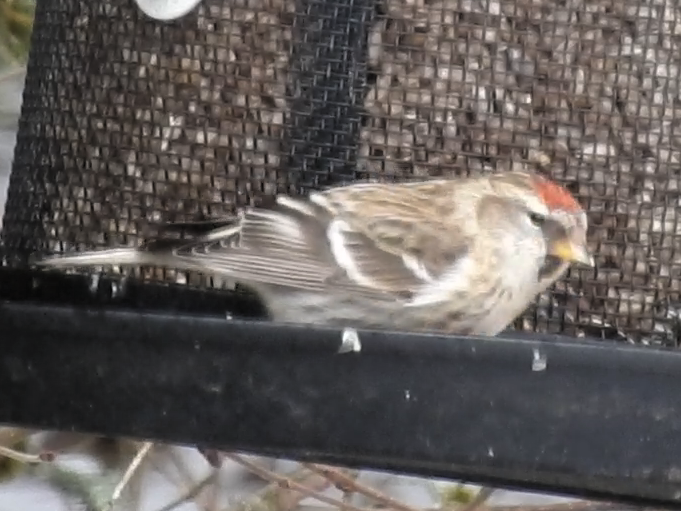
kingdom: Animalia
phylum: Chordata
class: Aves
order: Passeriformes
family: Fringillidae
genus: Acanthis
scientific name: Acanthis flammea
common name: Common redpoll
